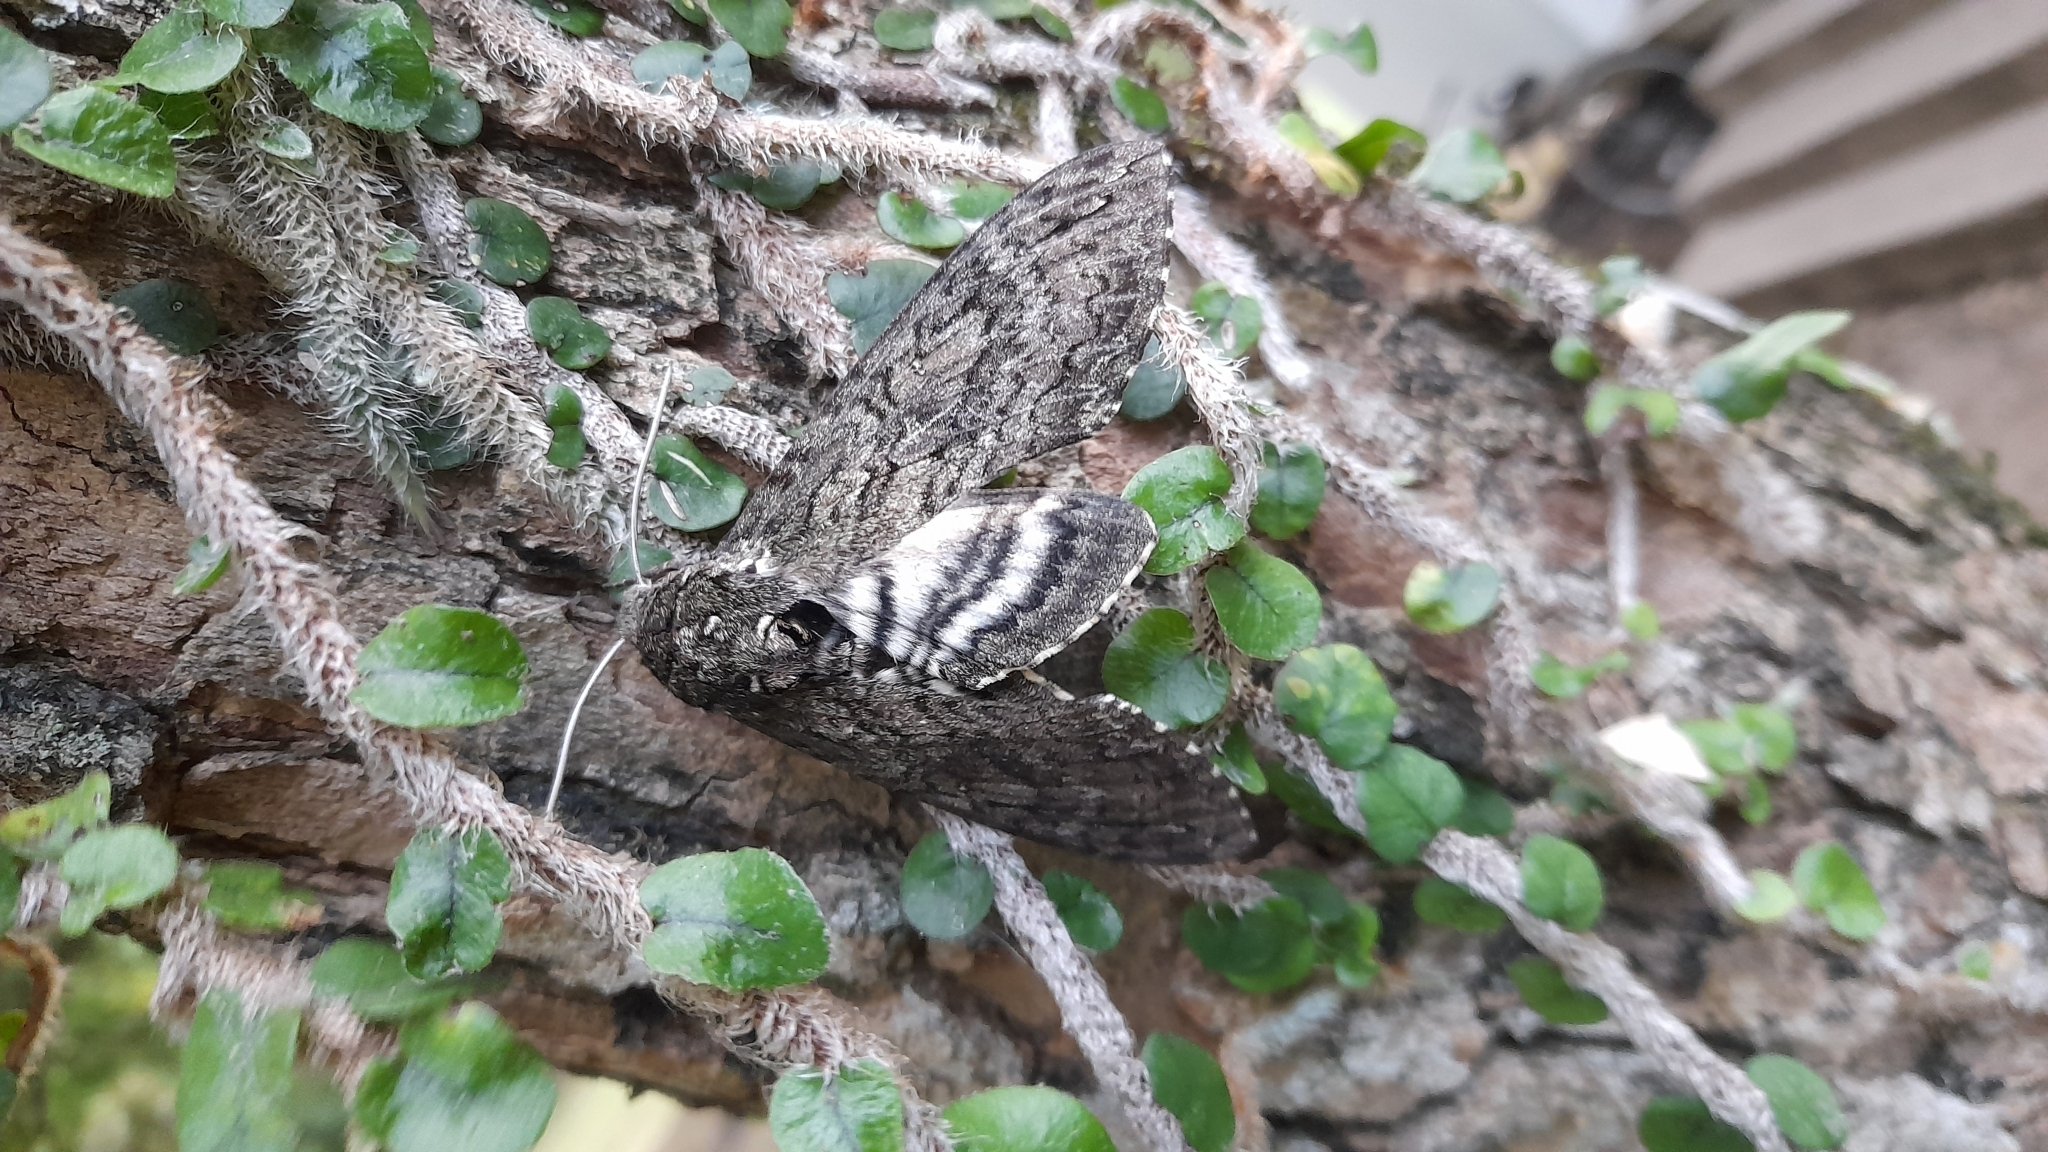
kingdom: Animalia
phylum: Arthropoda
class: Insecta
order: Lepidoptera
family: Sphingidae
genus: Manduca
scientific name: Manduca afflicta
